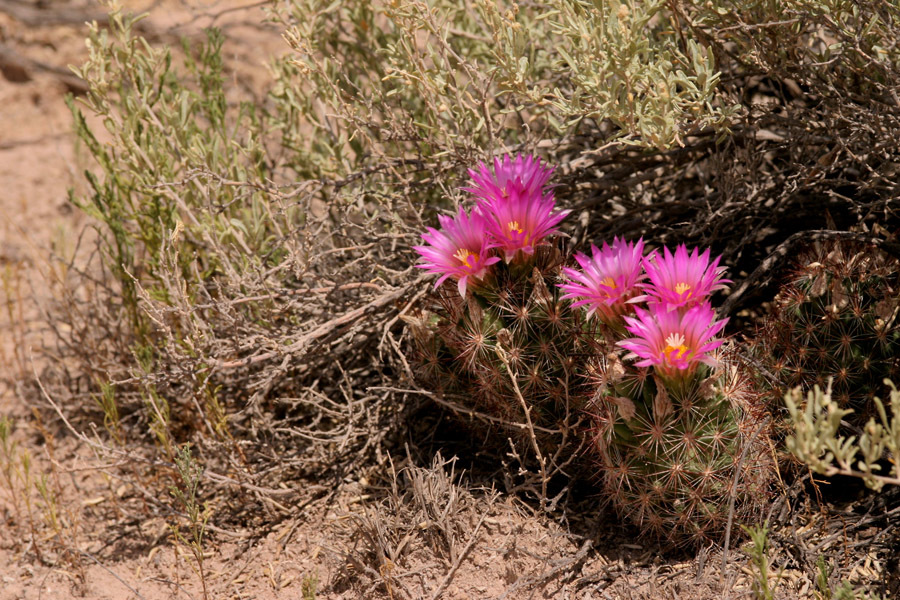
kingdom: Plantae
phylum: Tracheophyta
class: Magnoliopsida
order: Caryophyllales
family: Cactaceae
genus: Pelecyphora
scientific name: Pelecyphora vivipara
